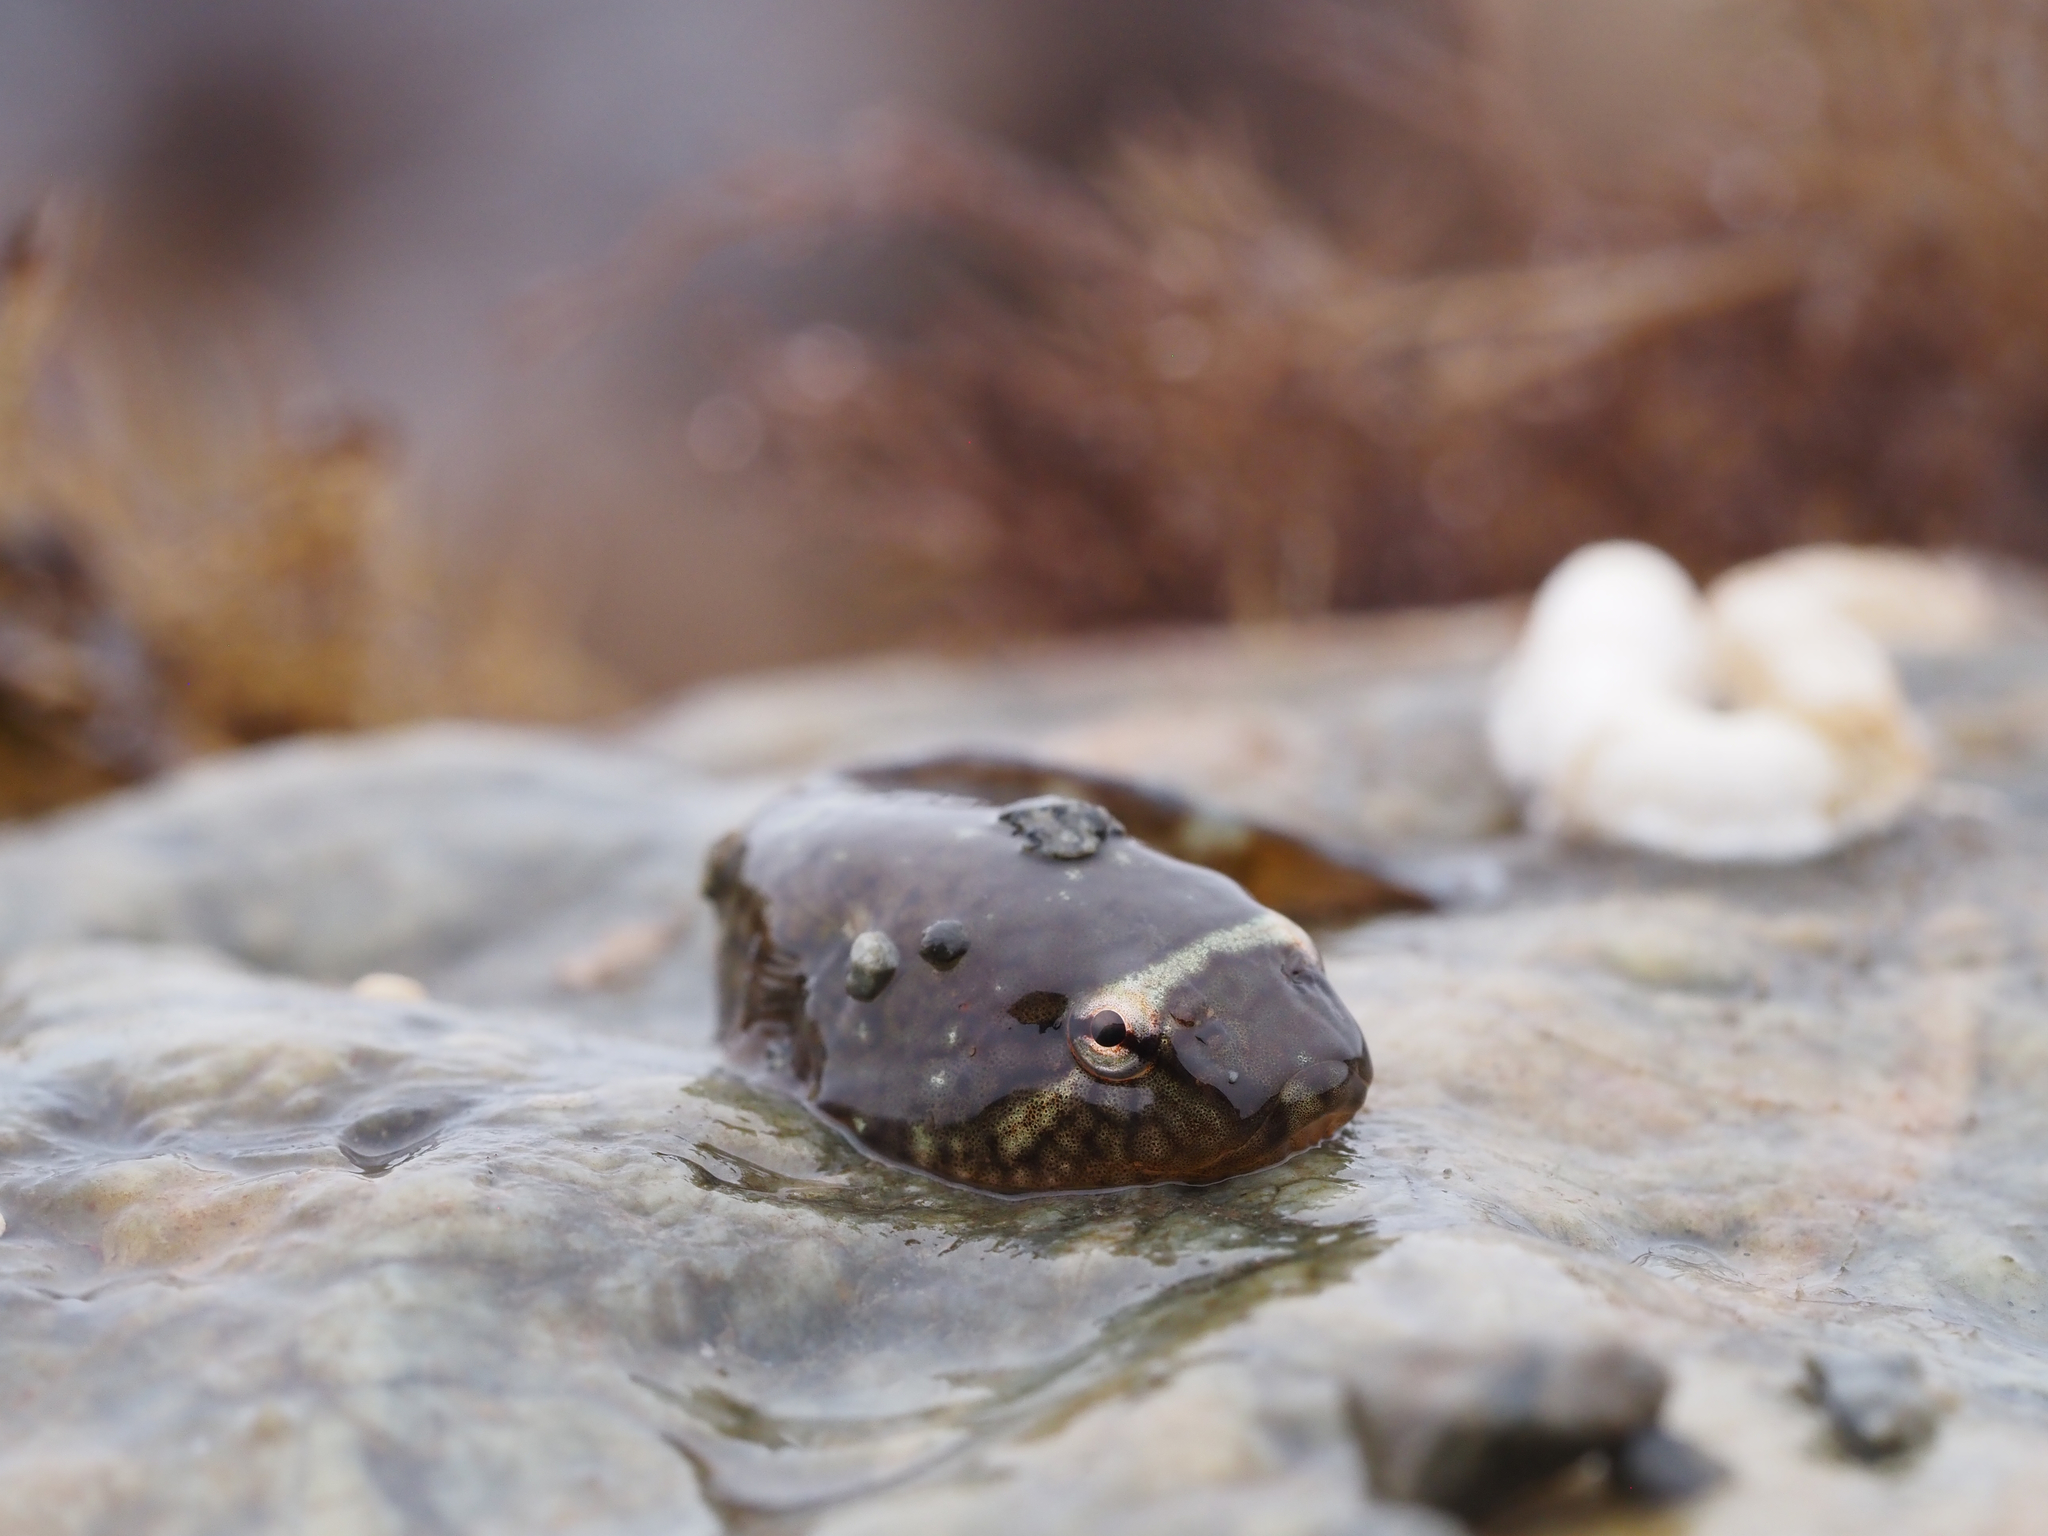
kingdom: Animalia
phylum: Chordata
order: Gobiesociformes
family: Gobiesocidae
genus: Gobiesox
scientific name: Gobiesox maeandricus
